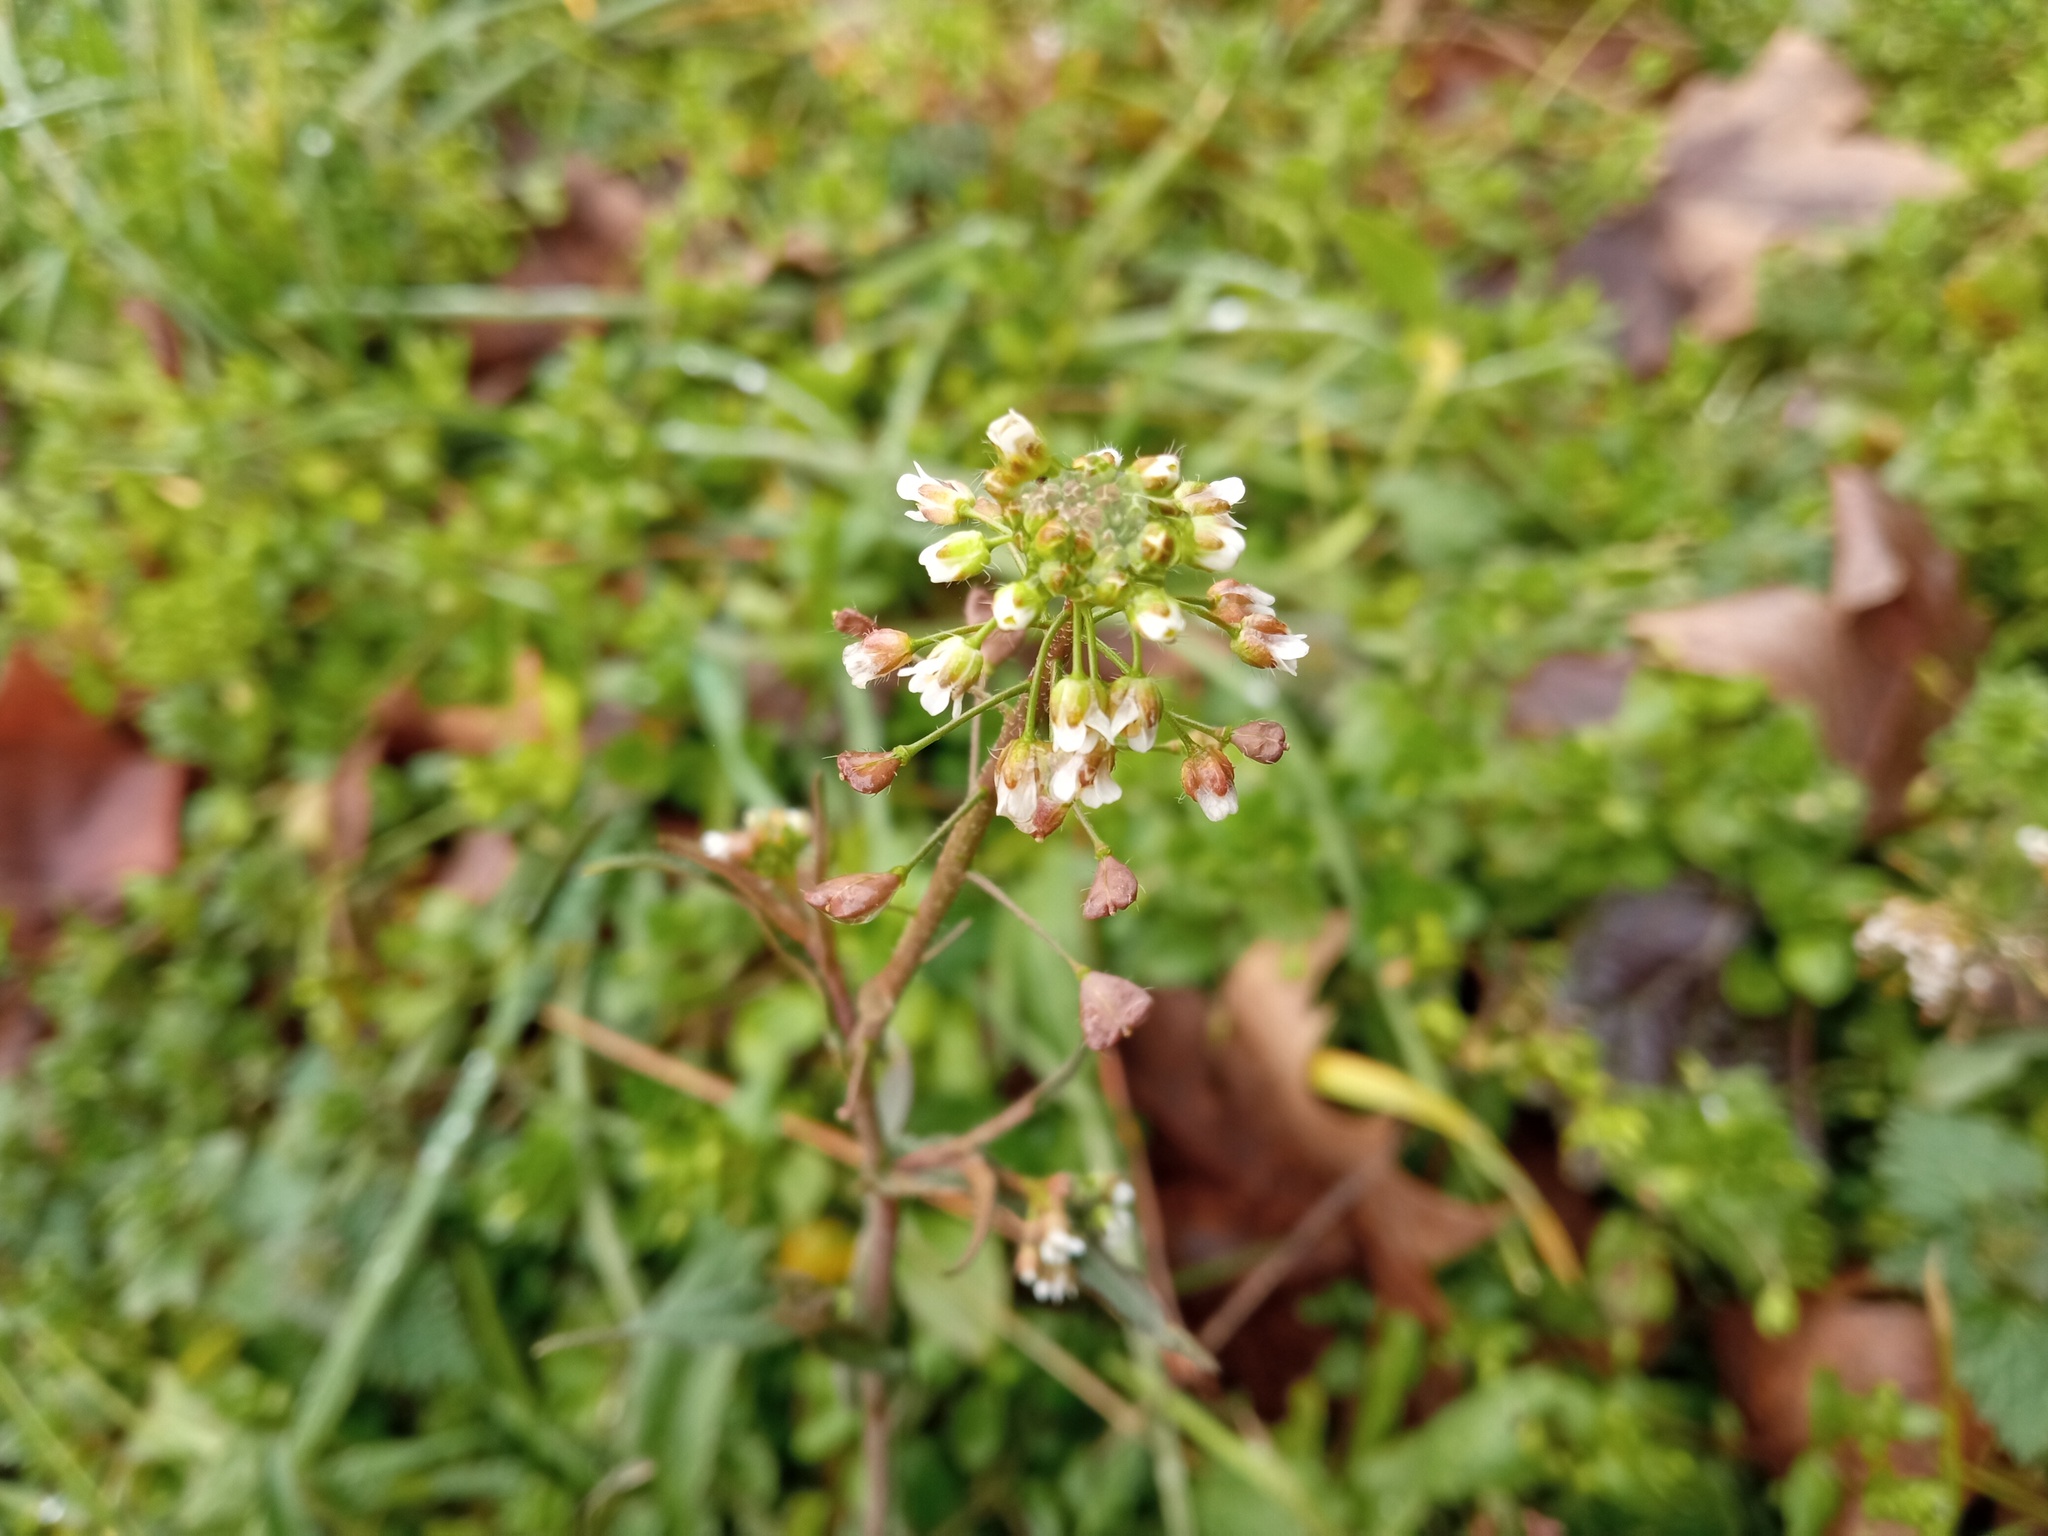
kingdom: Plantae
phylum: Tracheophyta
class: Magnoliopsida
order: Brassicales
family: Brassicaceae
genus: Capsella
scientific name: Capsella bursa-pastoris
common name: Shepherd's purse
